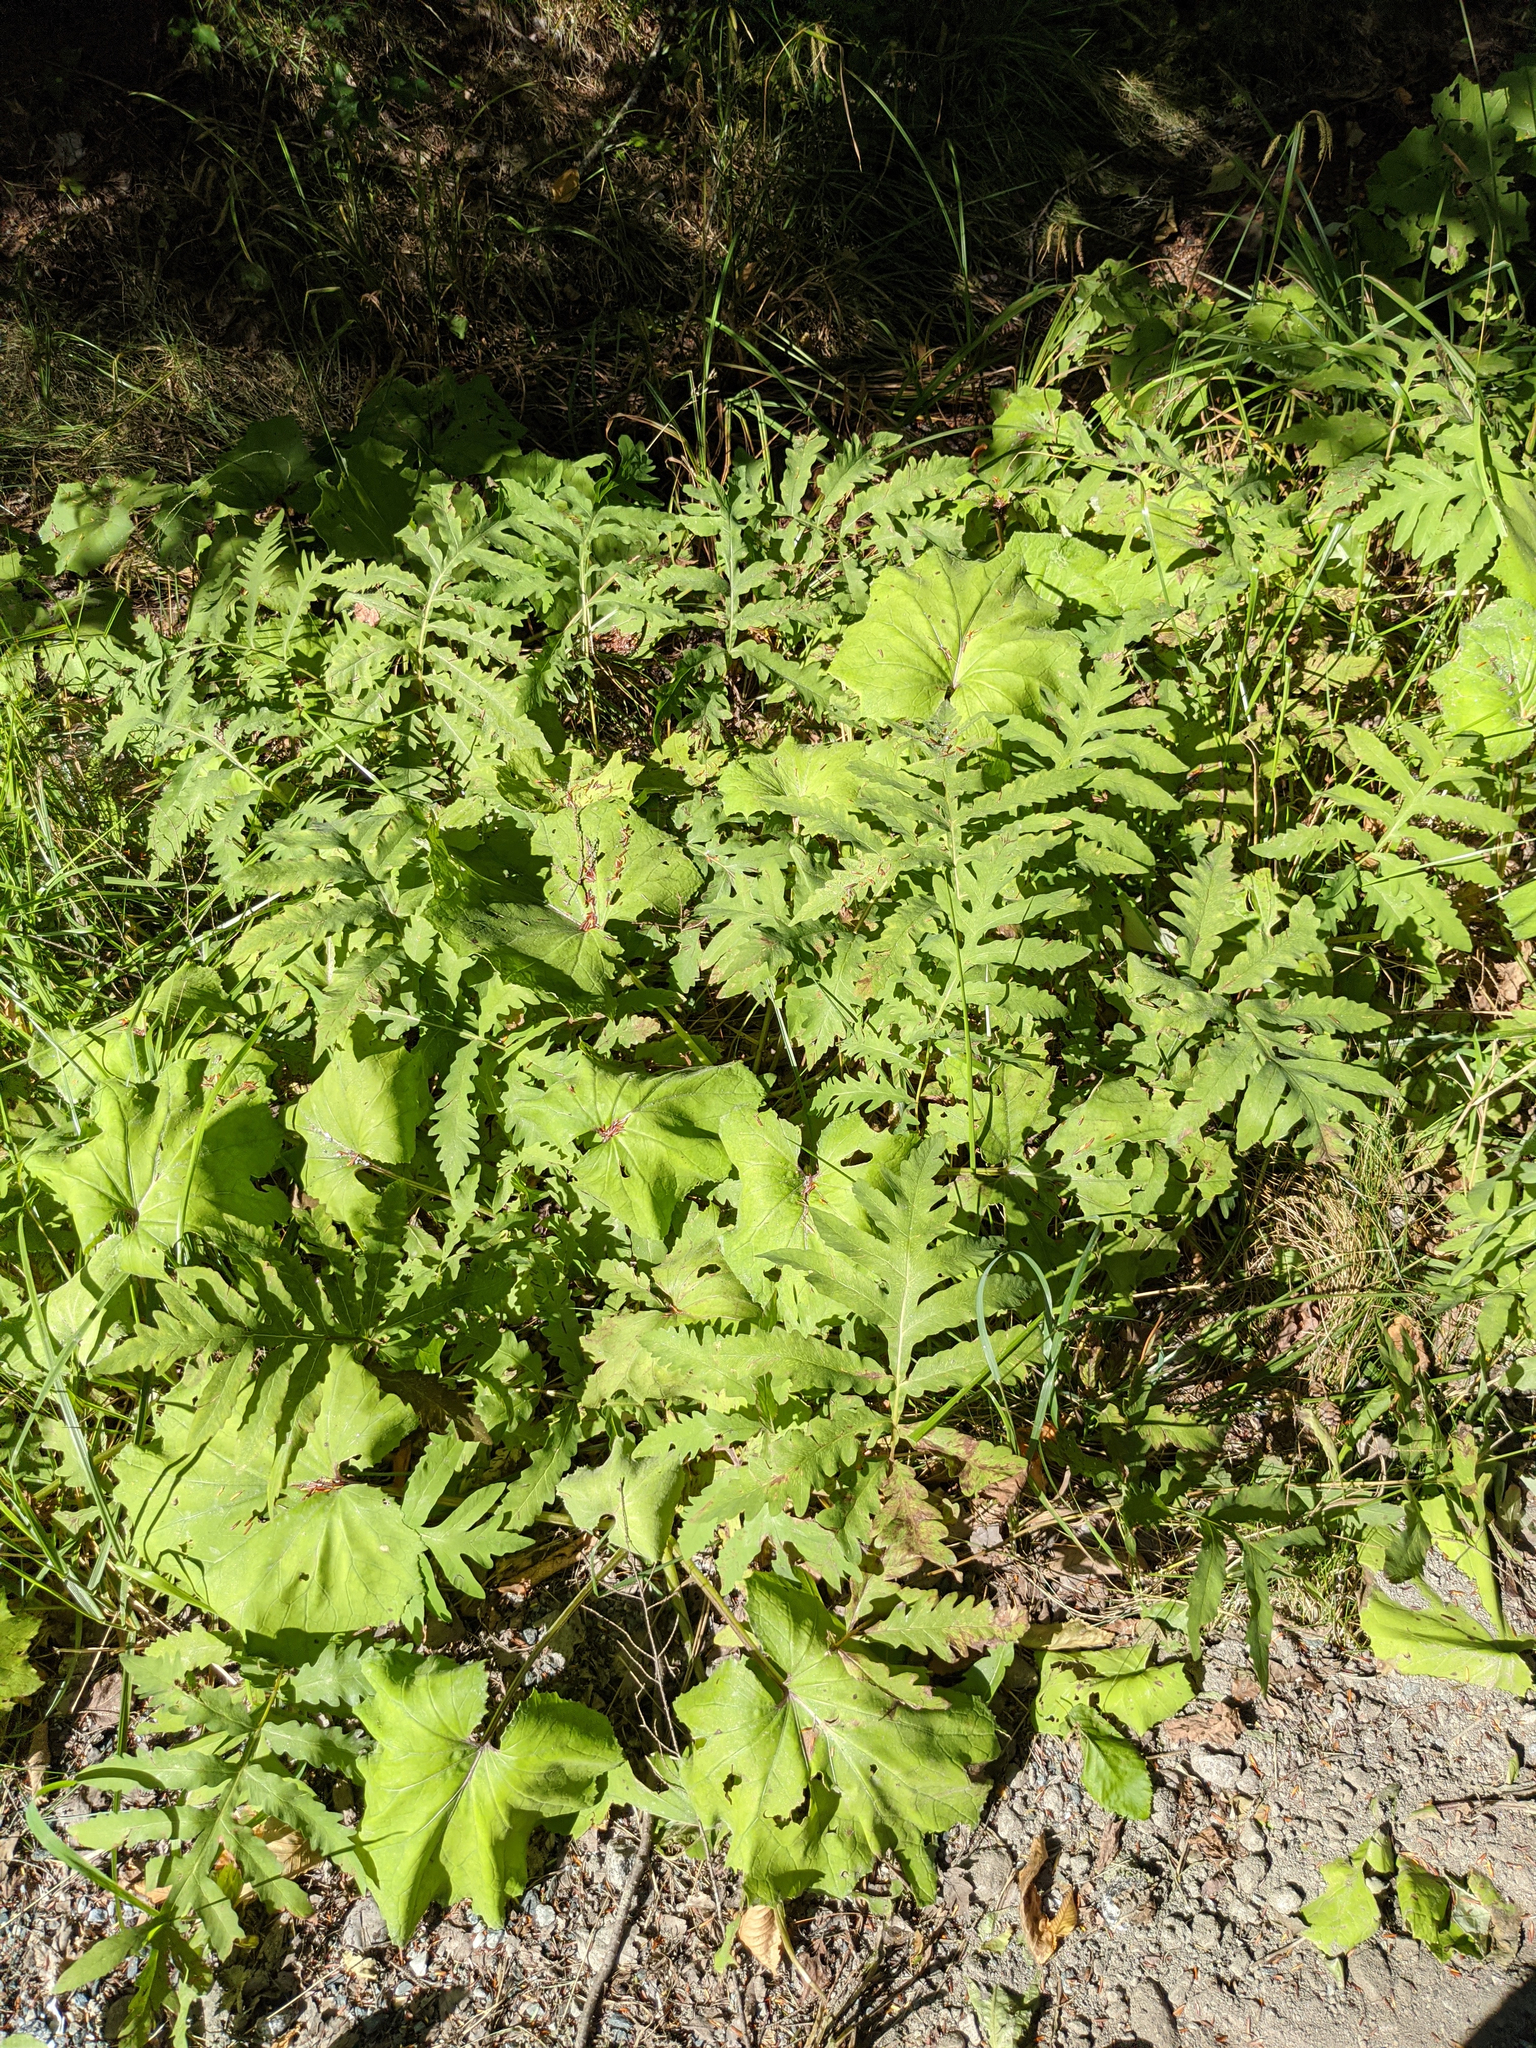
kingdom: Plantae
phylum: Tracheophyta
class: Polypodiopsida
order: Polypodiales
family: Onocleaceae
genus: Onoclea
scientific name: Onoclea sensibilis
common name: Sensitive fern
